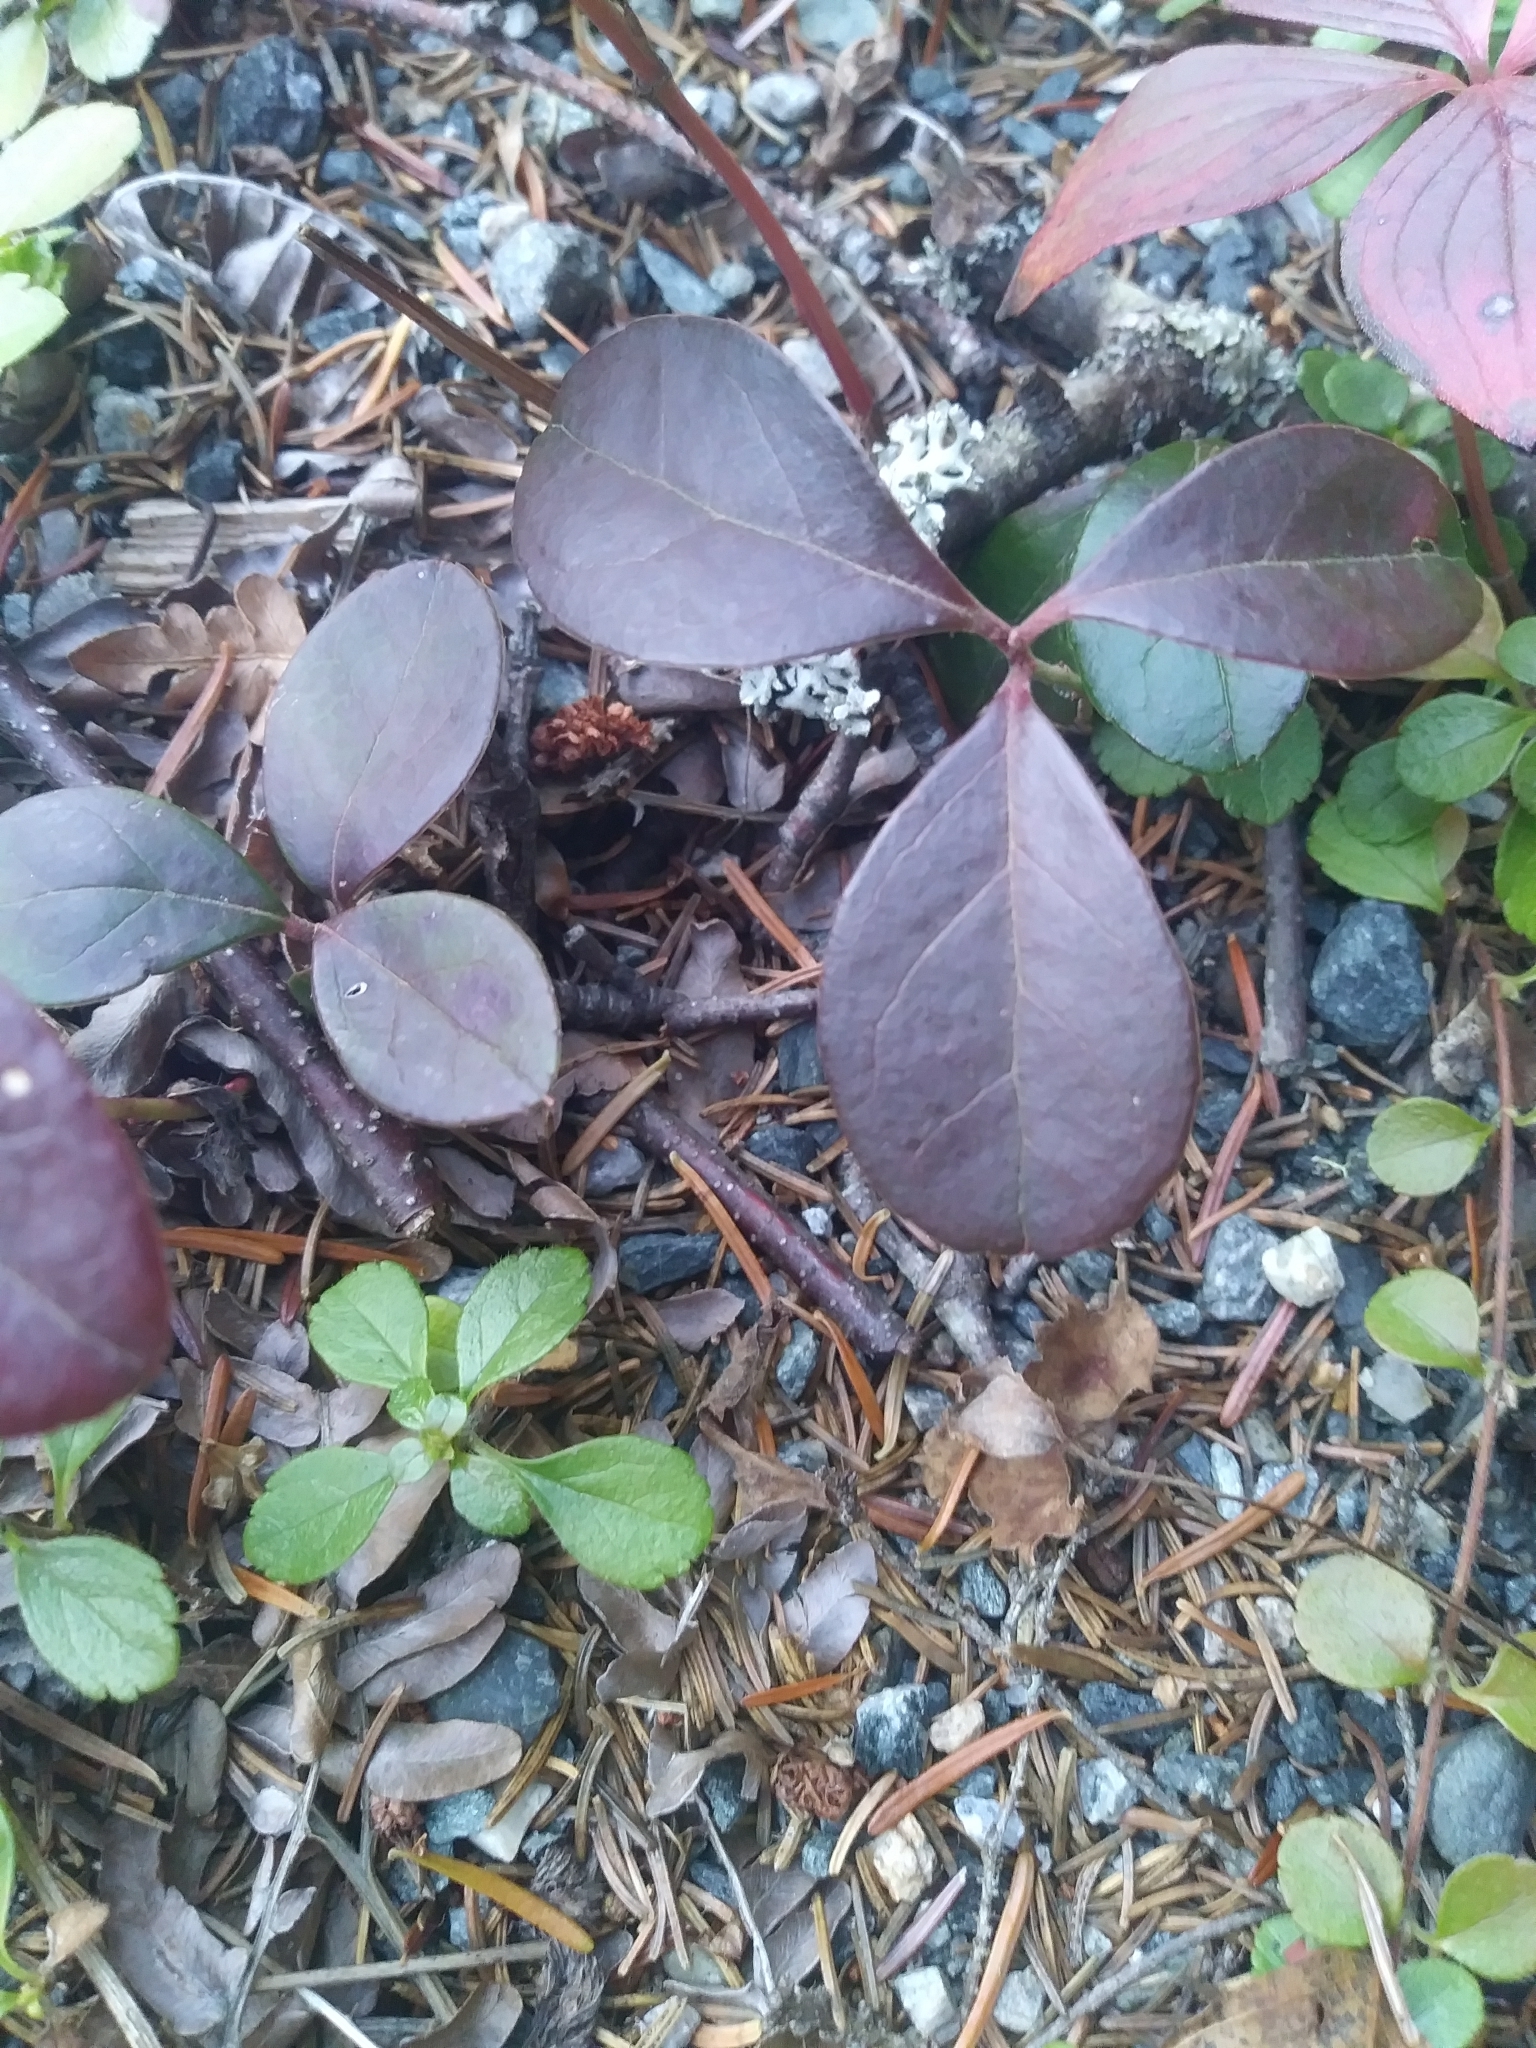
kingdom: Plantae
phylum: Tracheophyta
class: Magnoliopsida
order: Ericales
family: Ericaceae
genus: Gaultheria
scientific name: Gaultheria procumbens
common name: Checkerberry
